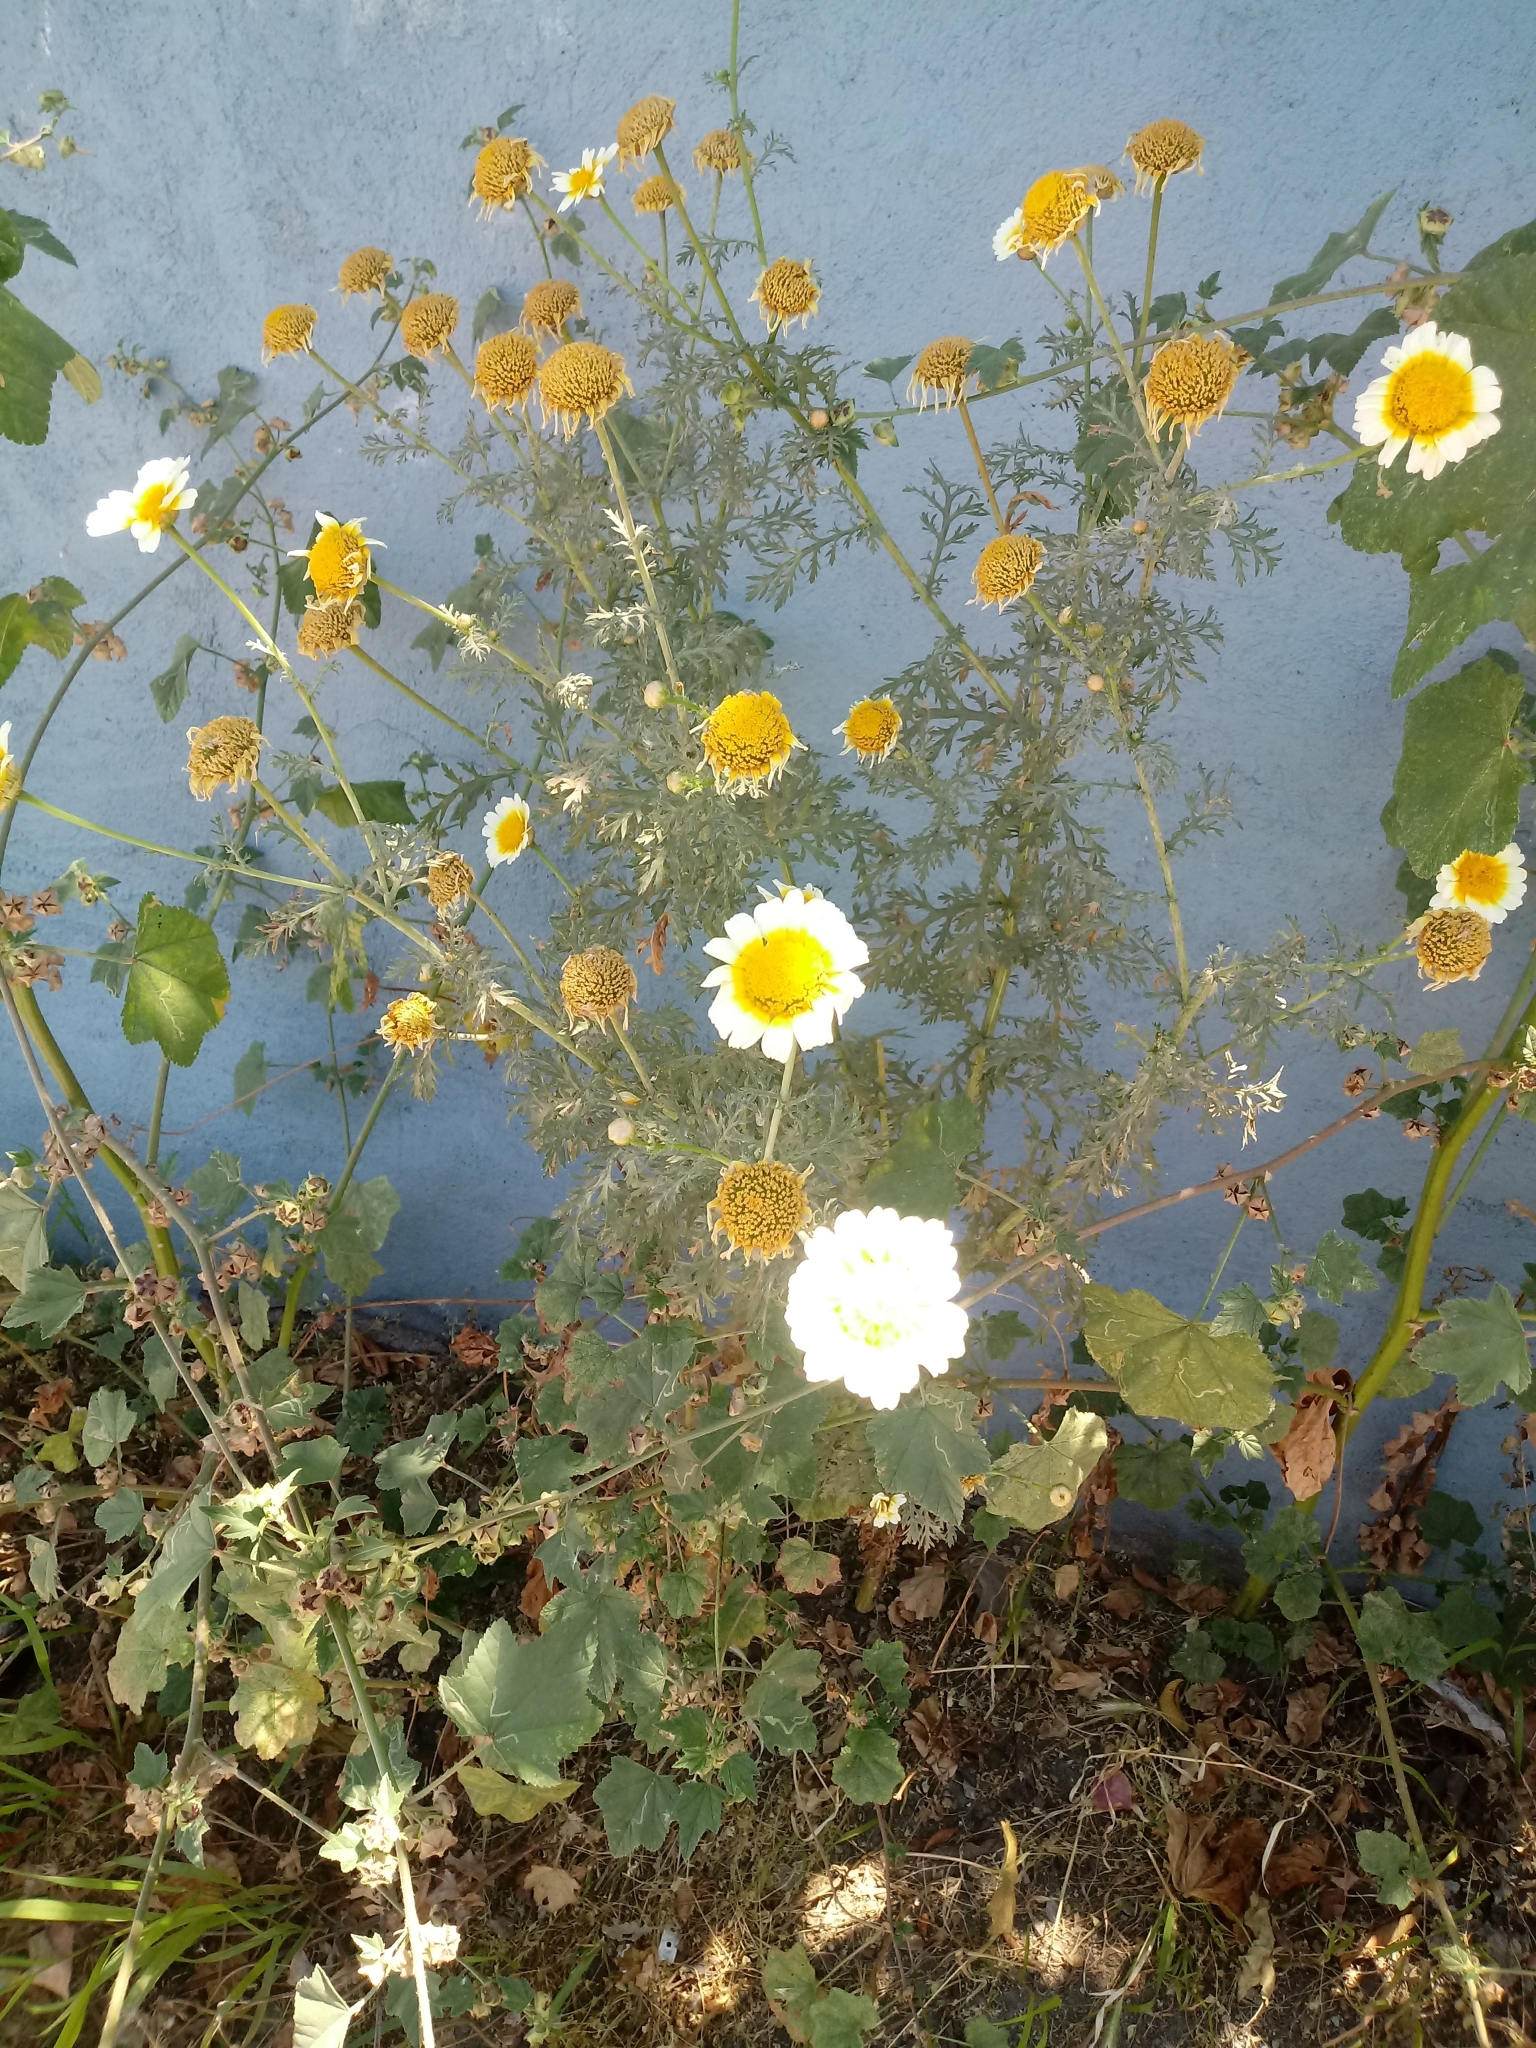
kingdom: Plantae
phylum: Tracheophyta
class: Magnoliopsida
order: Asterales
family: Asteraceae
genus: Glebionis
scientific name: Glebionis coronaria
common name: Crowndaisy
